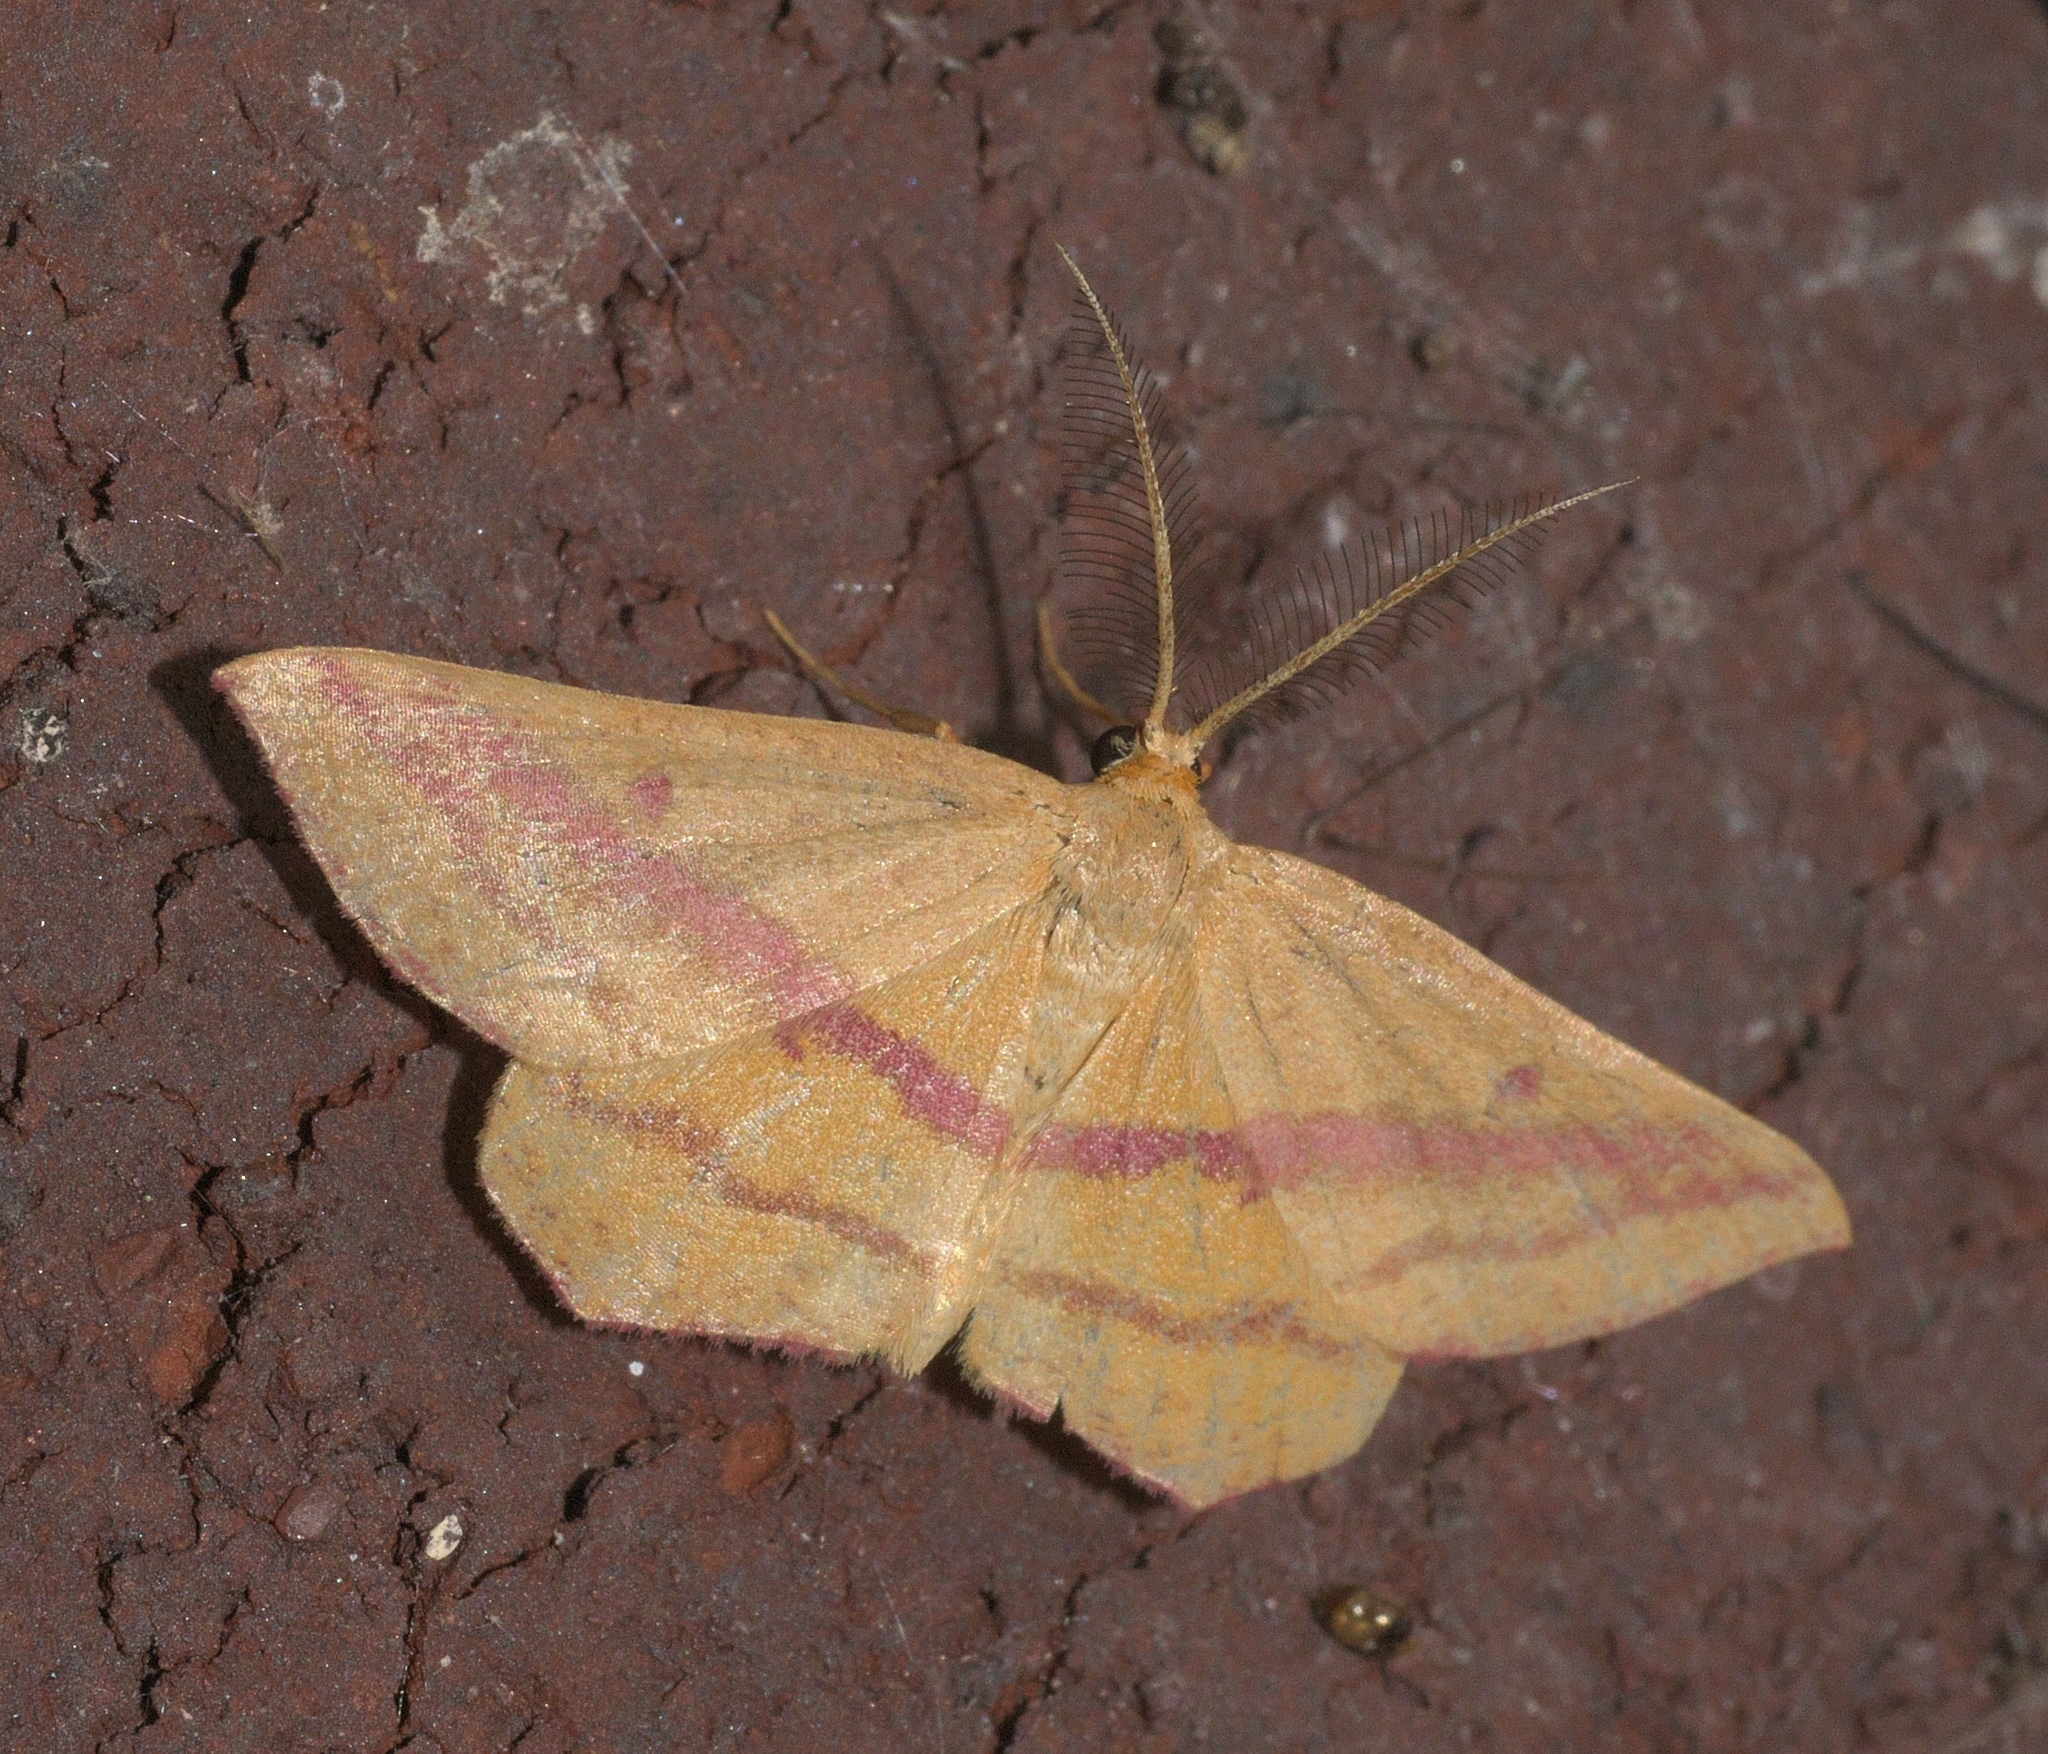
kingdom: Animalia
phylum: Arthropoda
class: Insecta
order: Lepidoptera
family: Geometridae
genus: Haematopis
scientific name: Haematopis grataria
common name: Chickweed geometer
